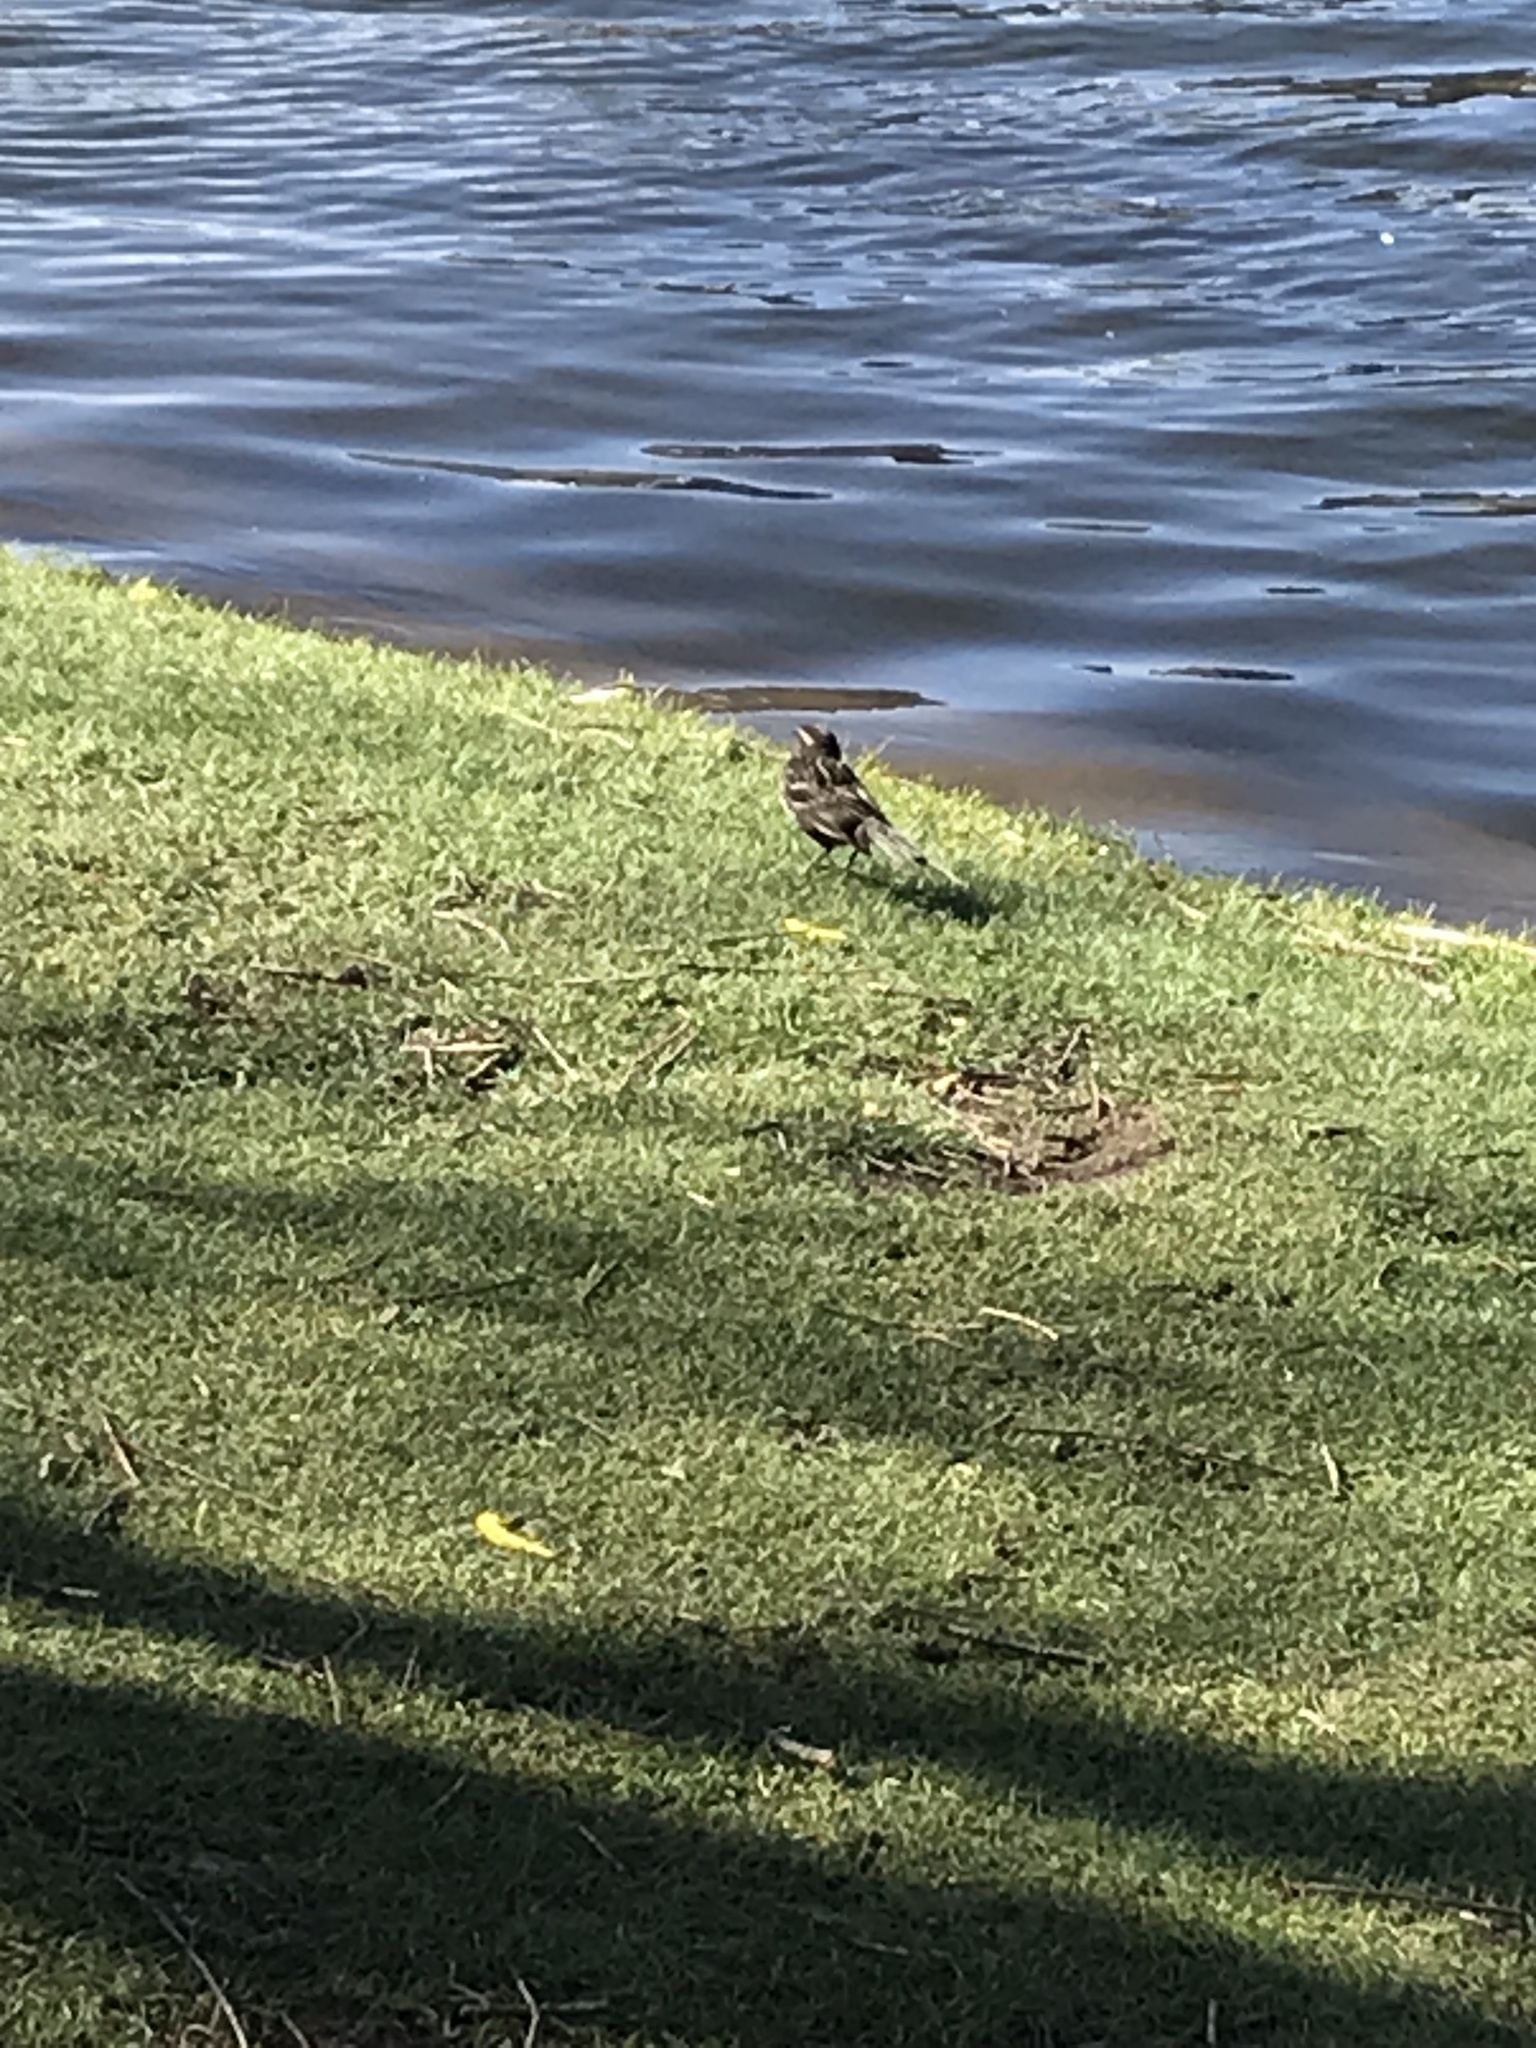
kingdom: Animalia
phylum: Chordata
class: Aves
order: Passeriformes
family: Icteridae
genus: Agelaius
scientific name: Agelaius phoeniceus
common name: Red-winged blackbird
